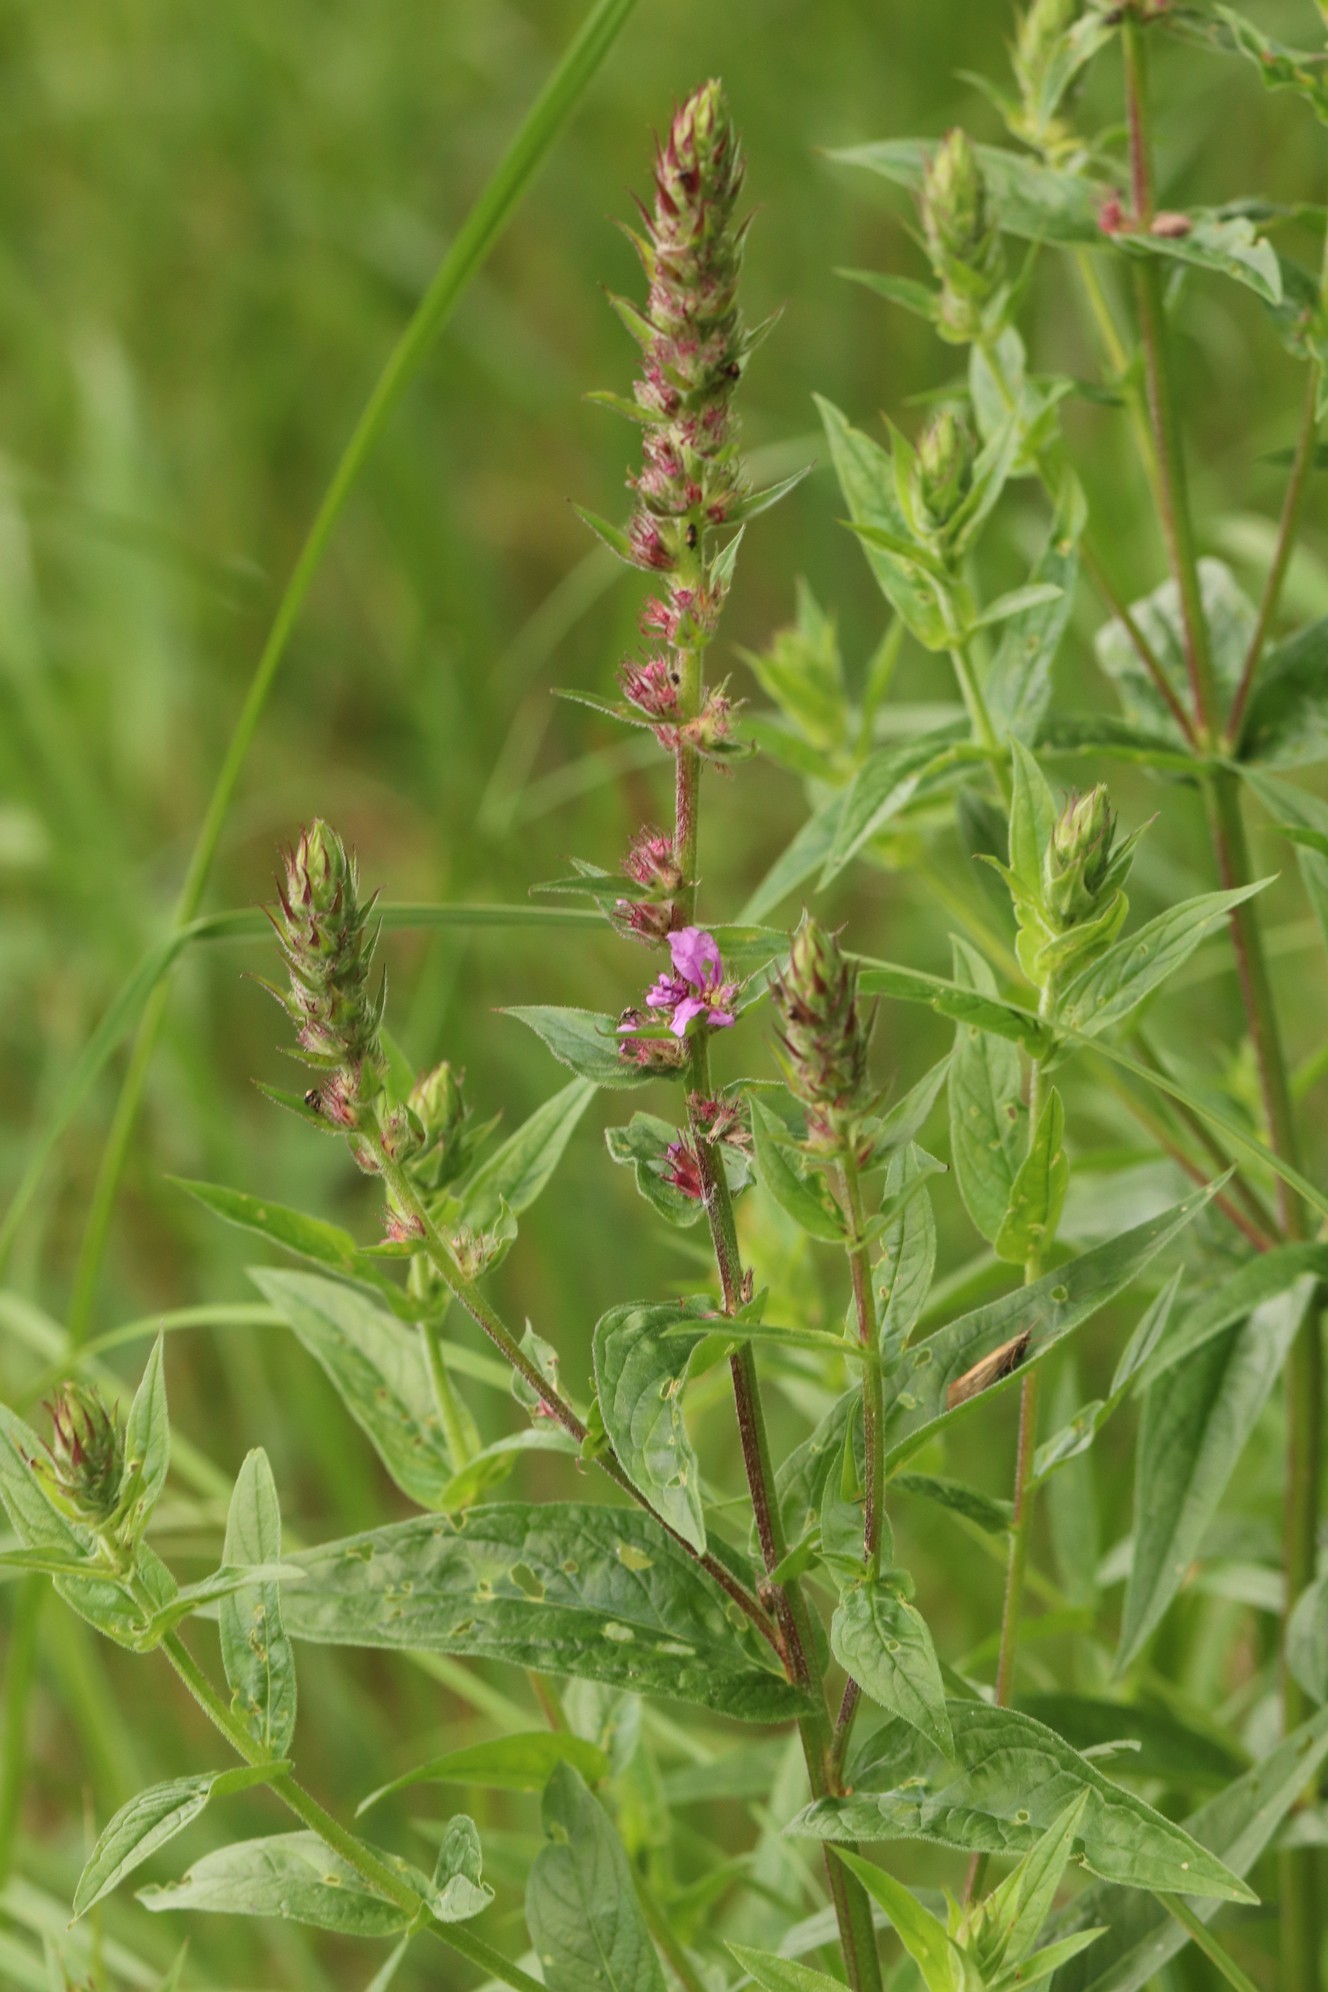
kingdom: Plantae
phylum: Tracheophyta
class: Magnoliopsida
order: Lamiales
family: Lamiaceae
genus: Stachys
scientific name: Stachys palustris
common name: Marsh woundwort
